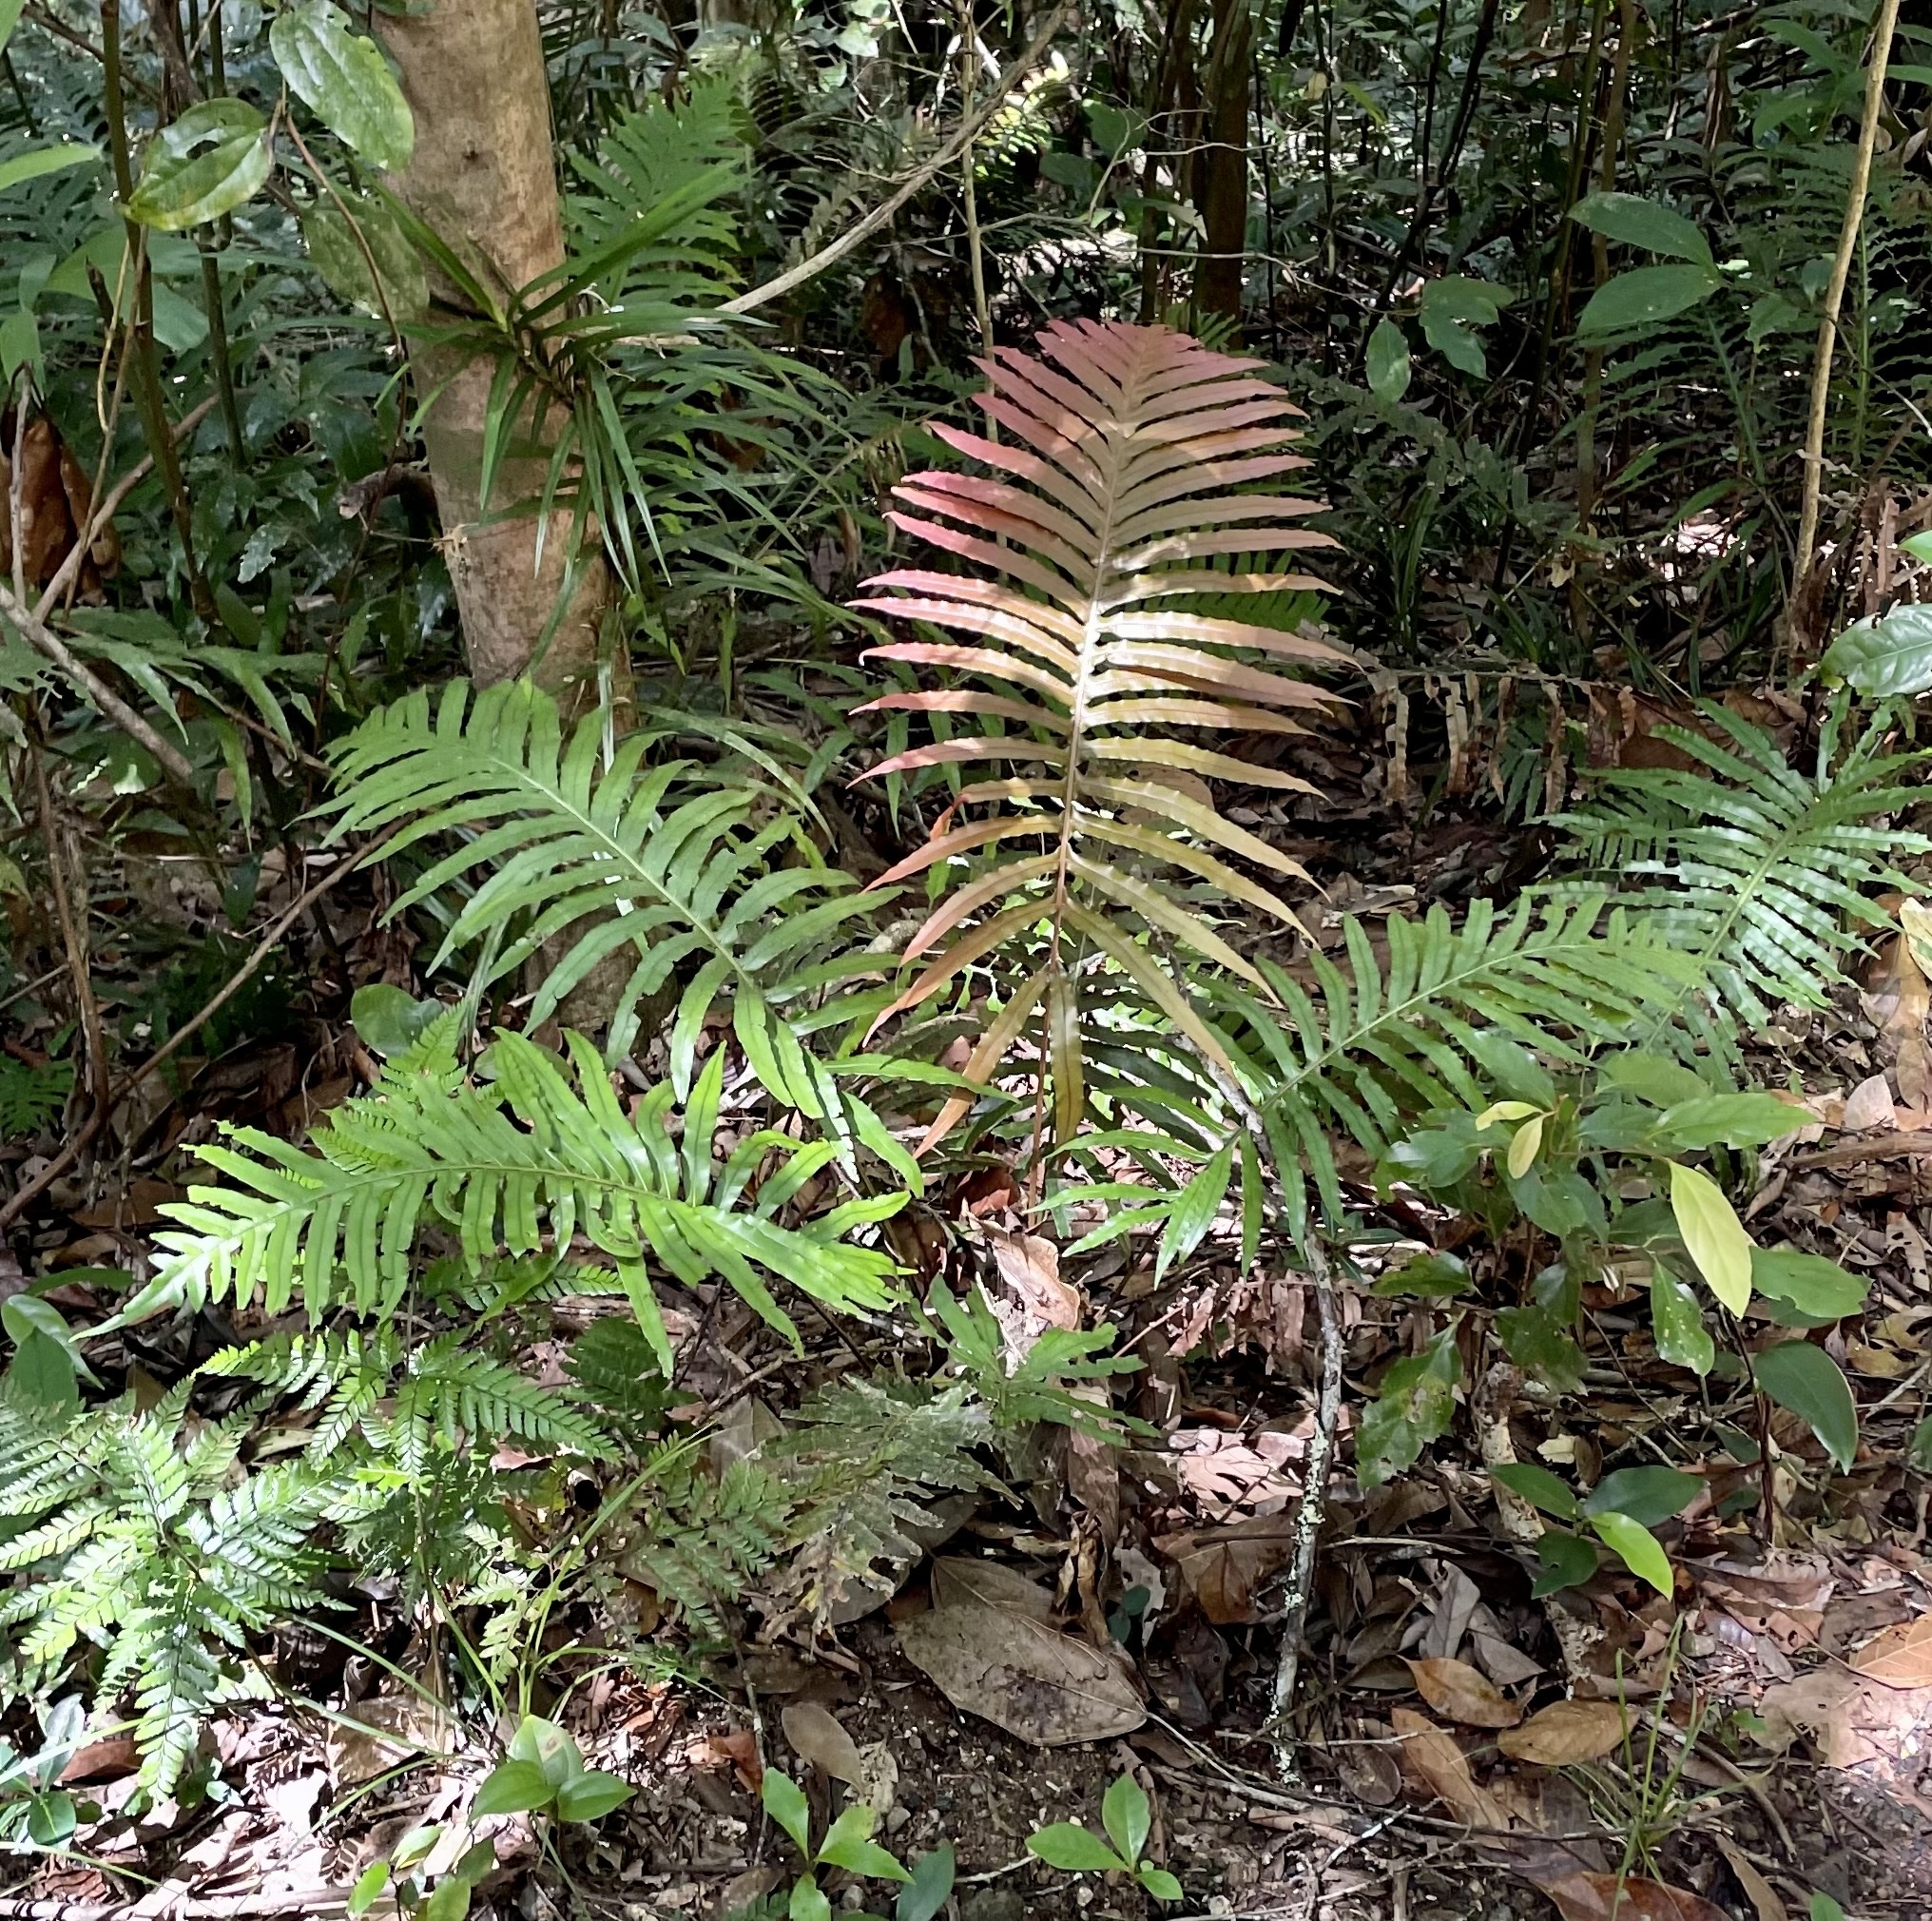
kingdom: Plantae
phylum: Tracheophyta
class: Polypodiopsida
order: Polypodiales
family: Blechnaceae
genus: Oceaniopteris
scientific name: Oceaniopteris cartilaginea
